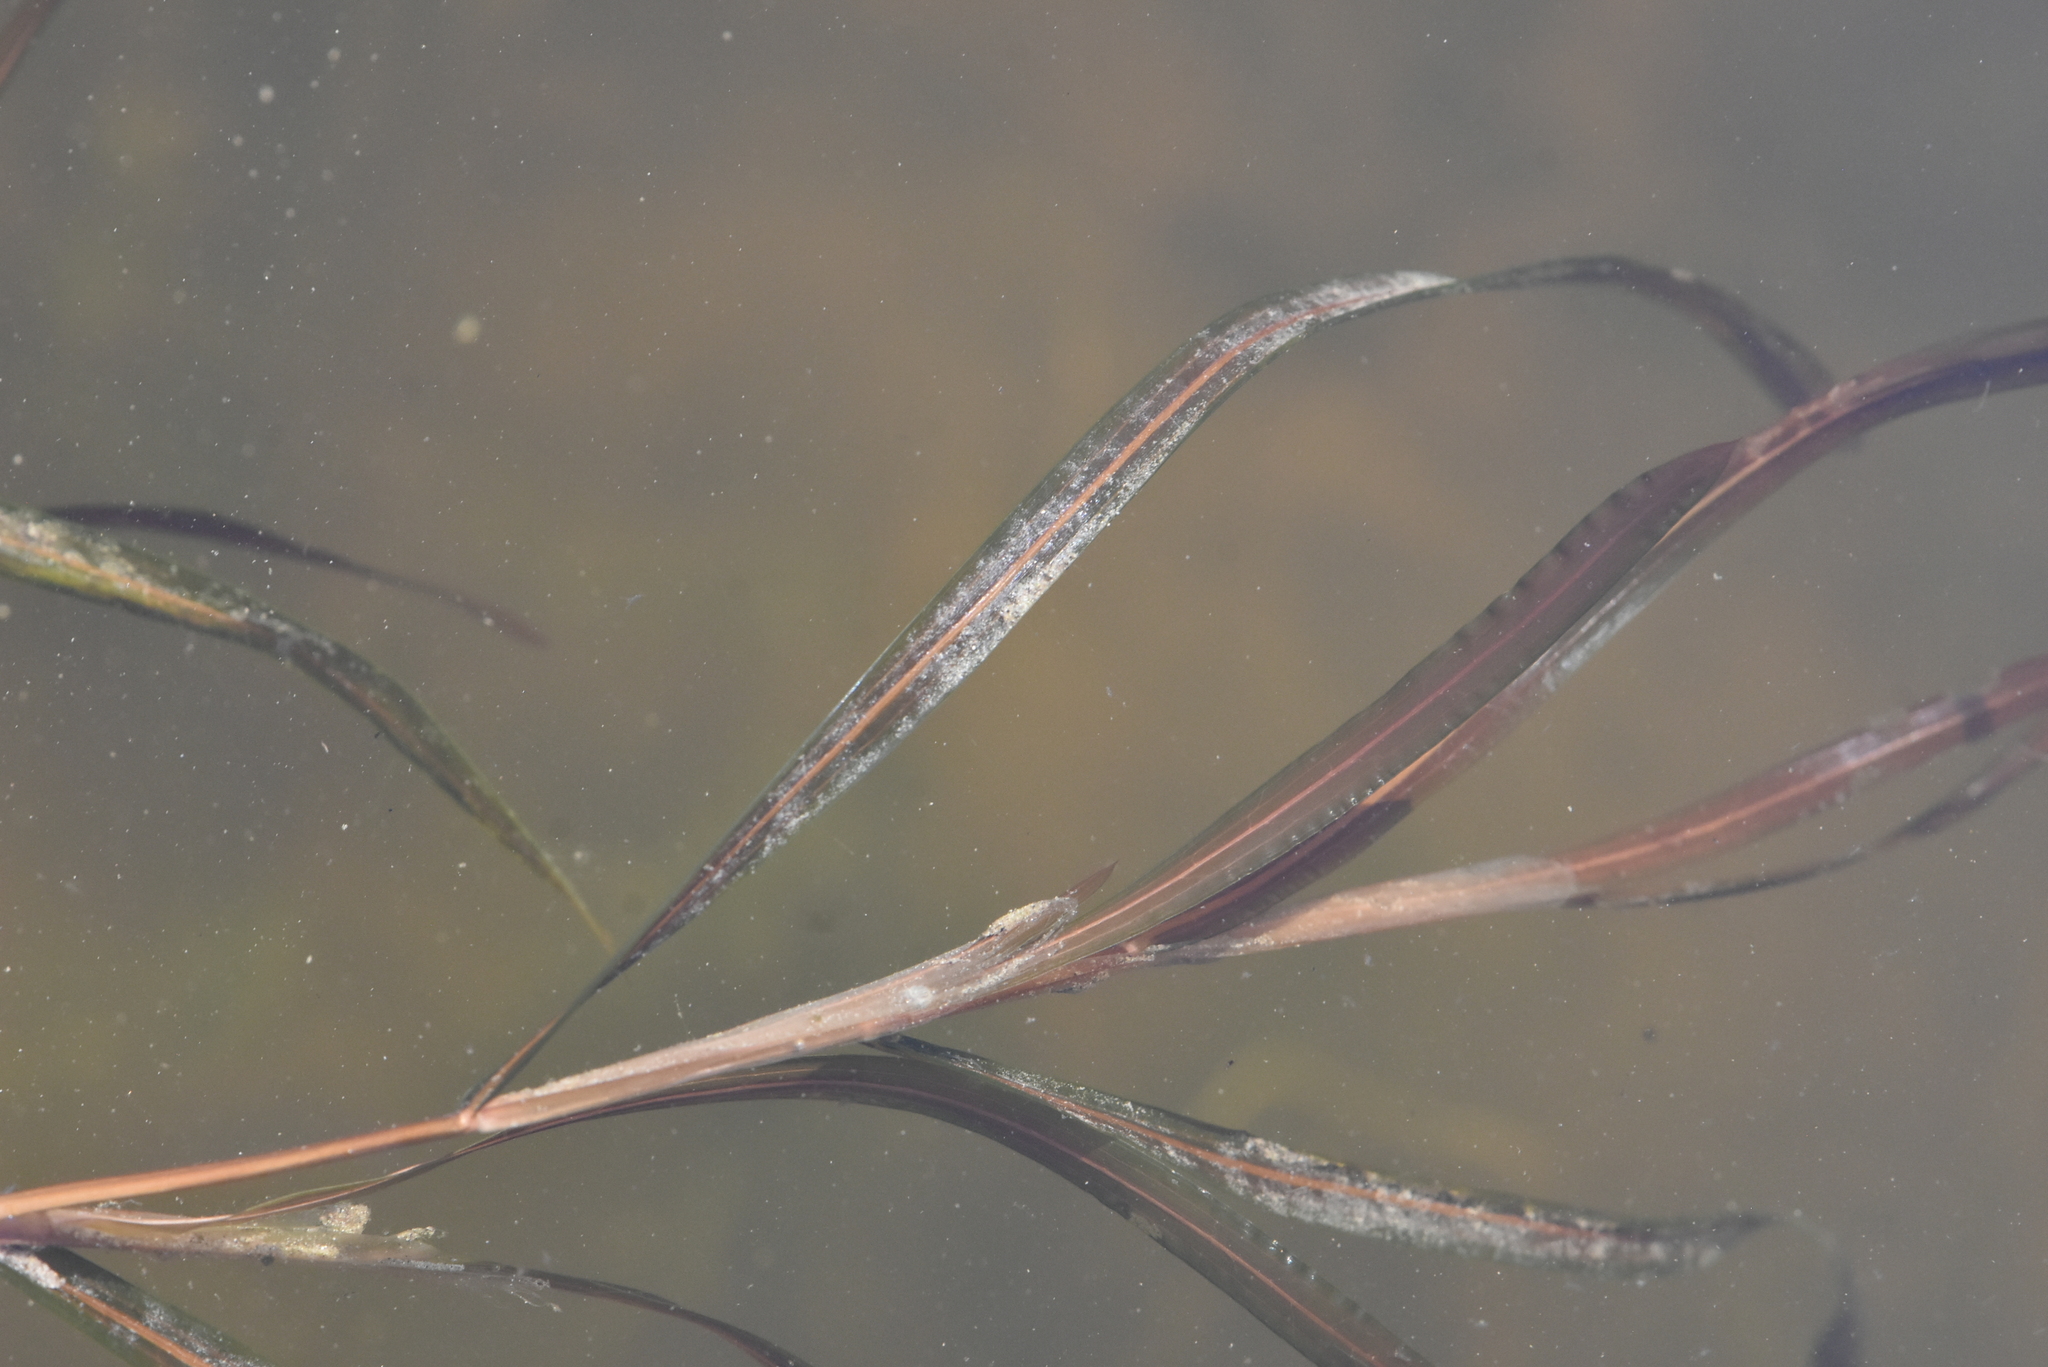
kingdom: Plantae
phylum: Tracheophyta
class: Liliopsida
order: Alismatales
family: Potamogetonaceae
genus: Potamogeton
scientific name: Potamogeton acutifolius
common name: Sharp-leaved pondweed
